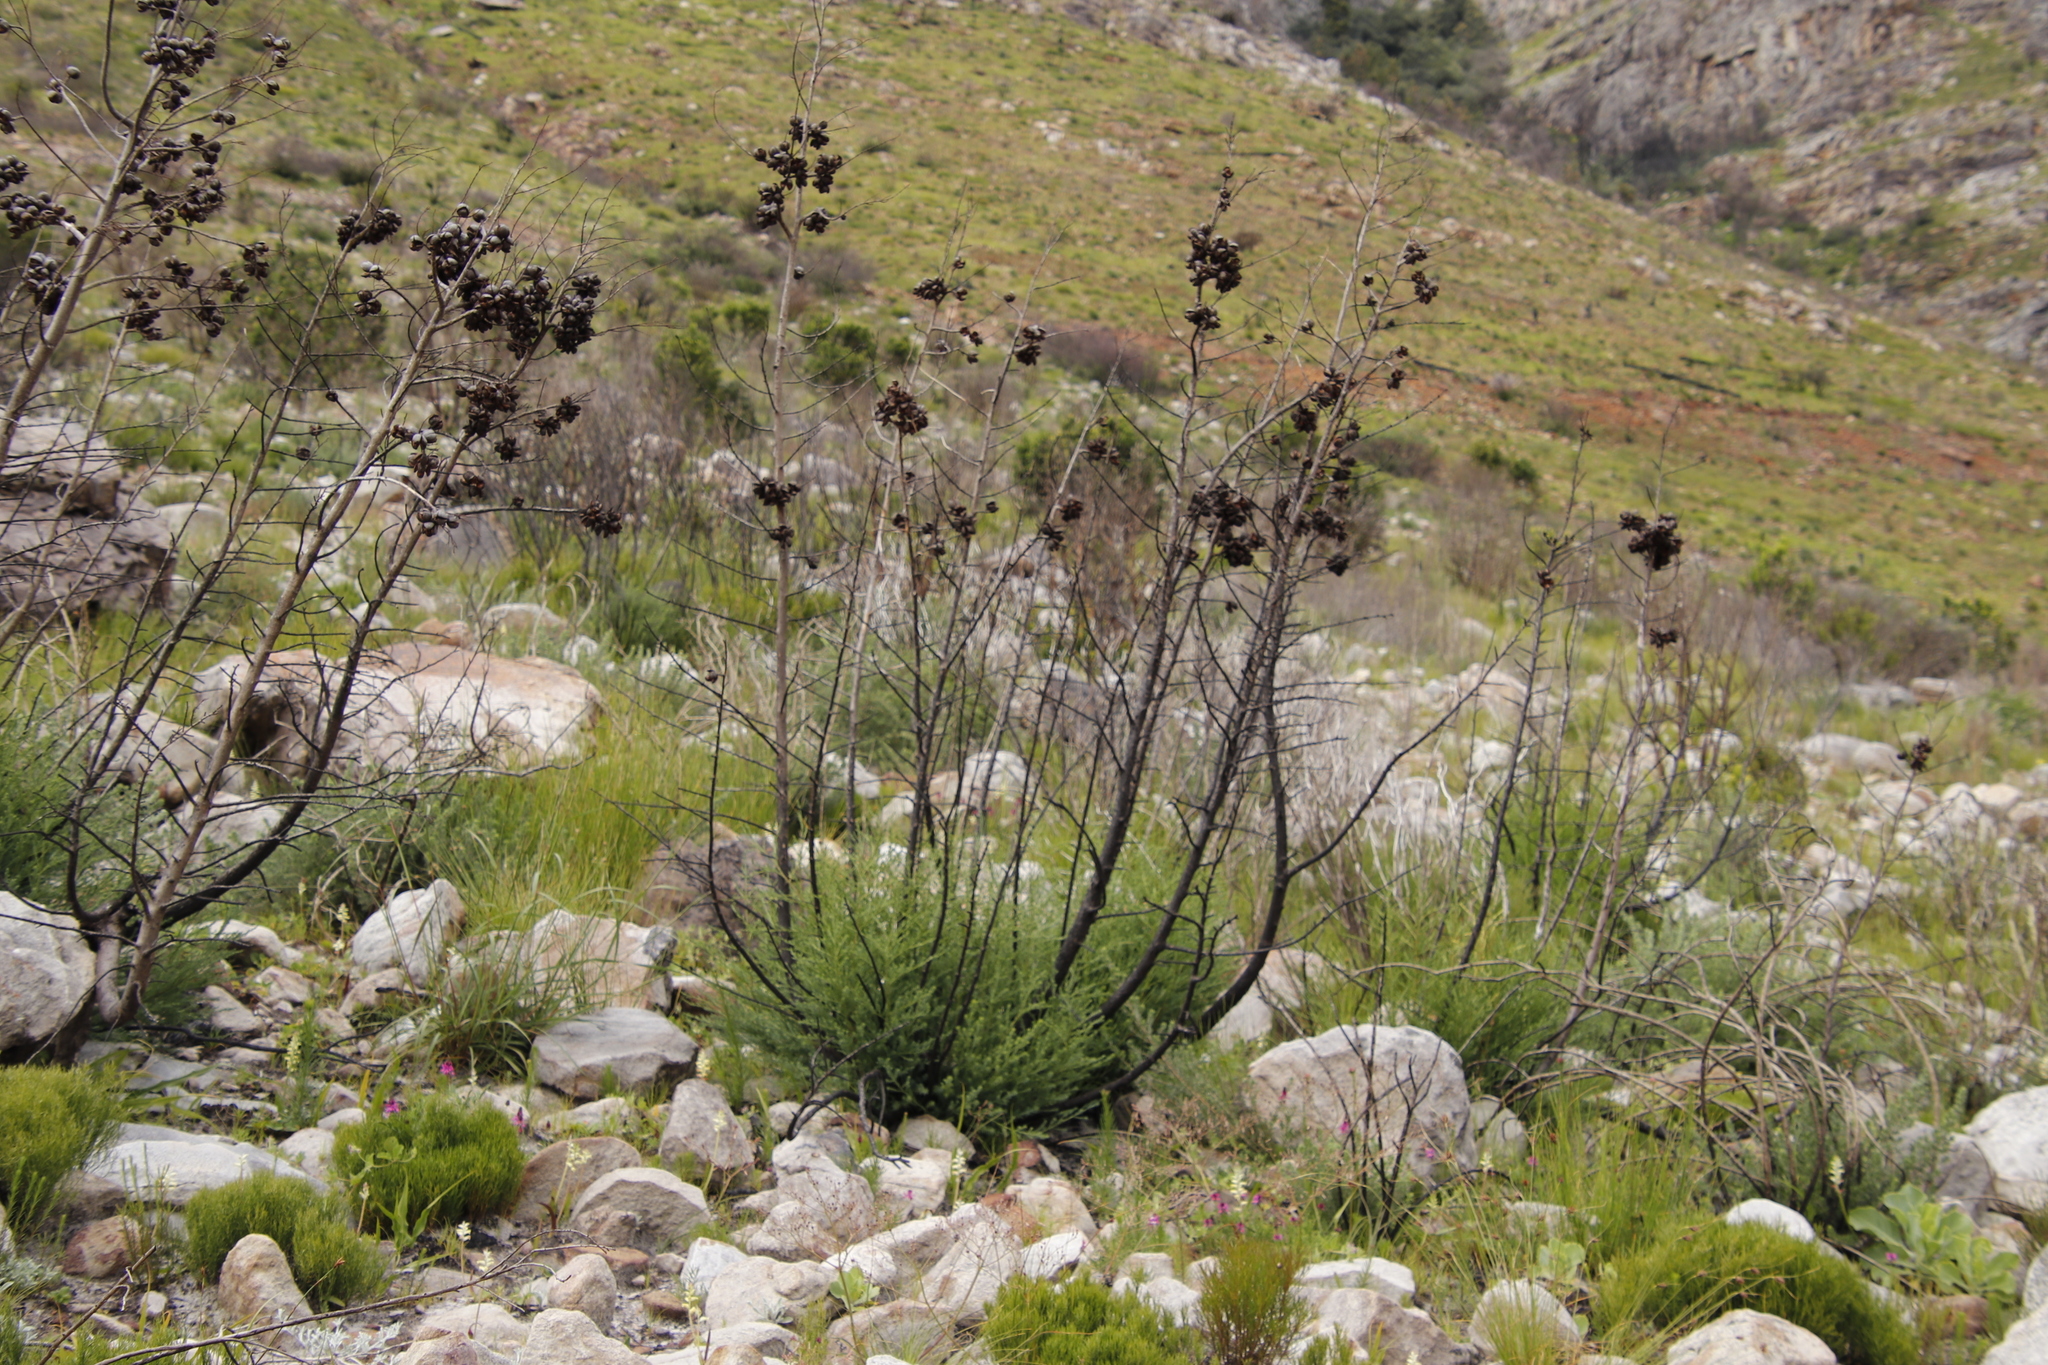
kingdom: Plantae
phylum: Tracheophyta
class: Pinopsida
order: Pinales
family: Cupressaceae
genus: Widdringtonia
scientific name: Widdringtonia nodiflora
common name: Cape cypress
